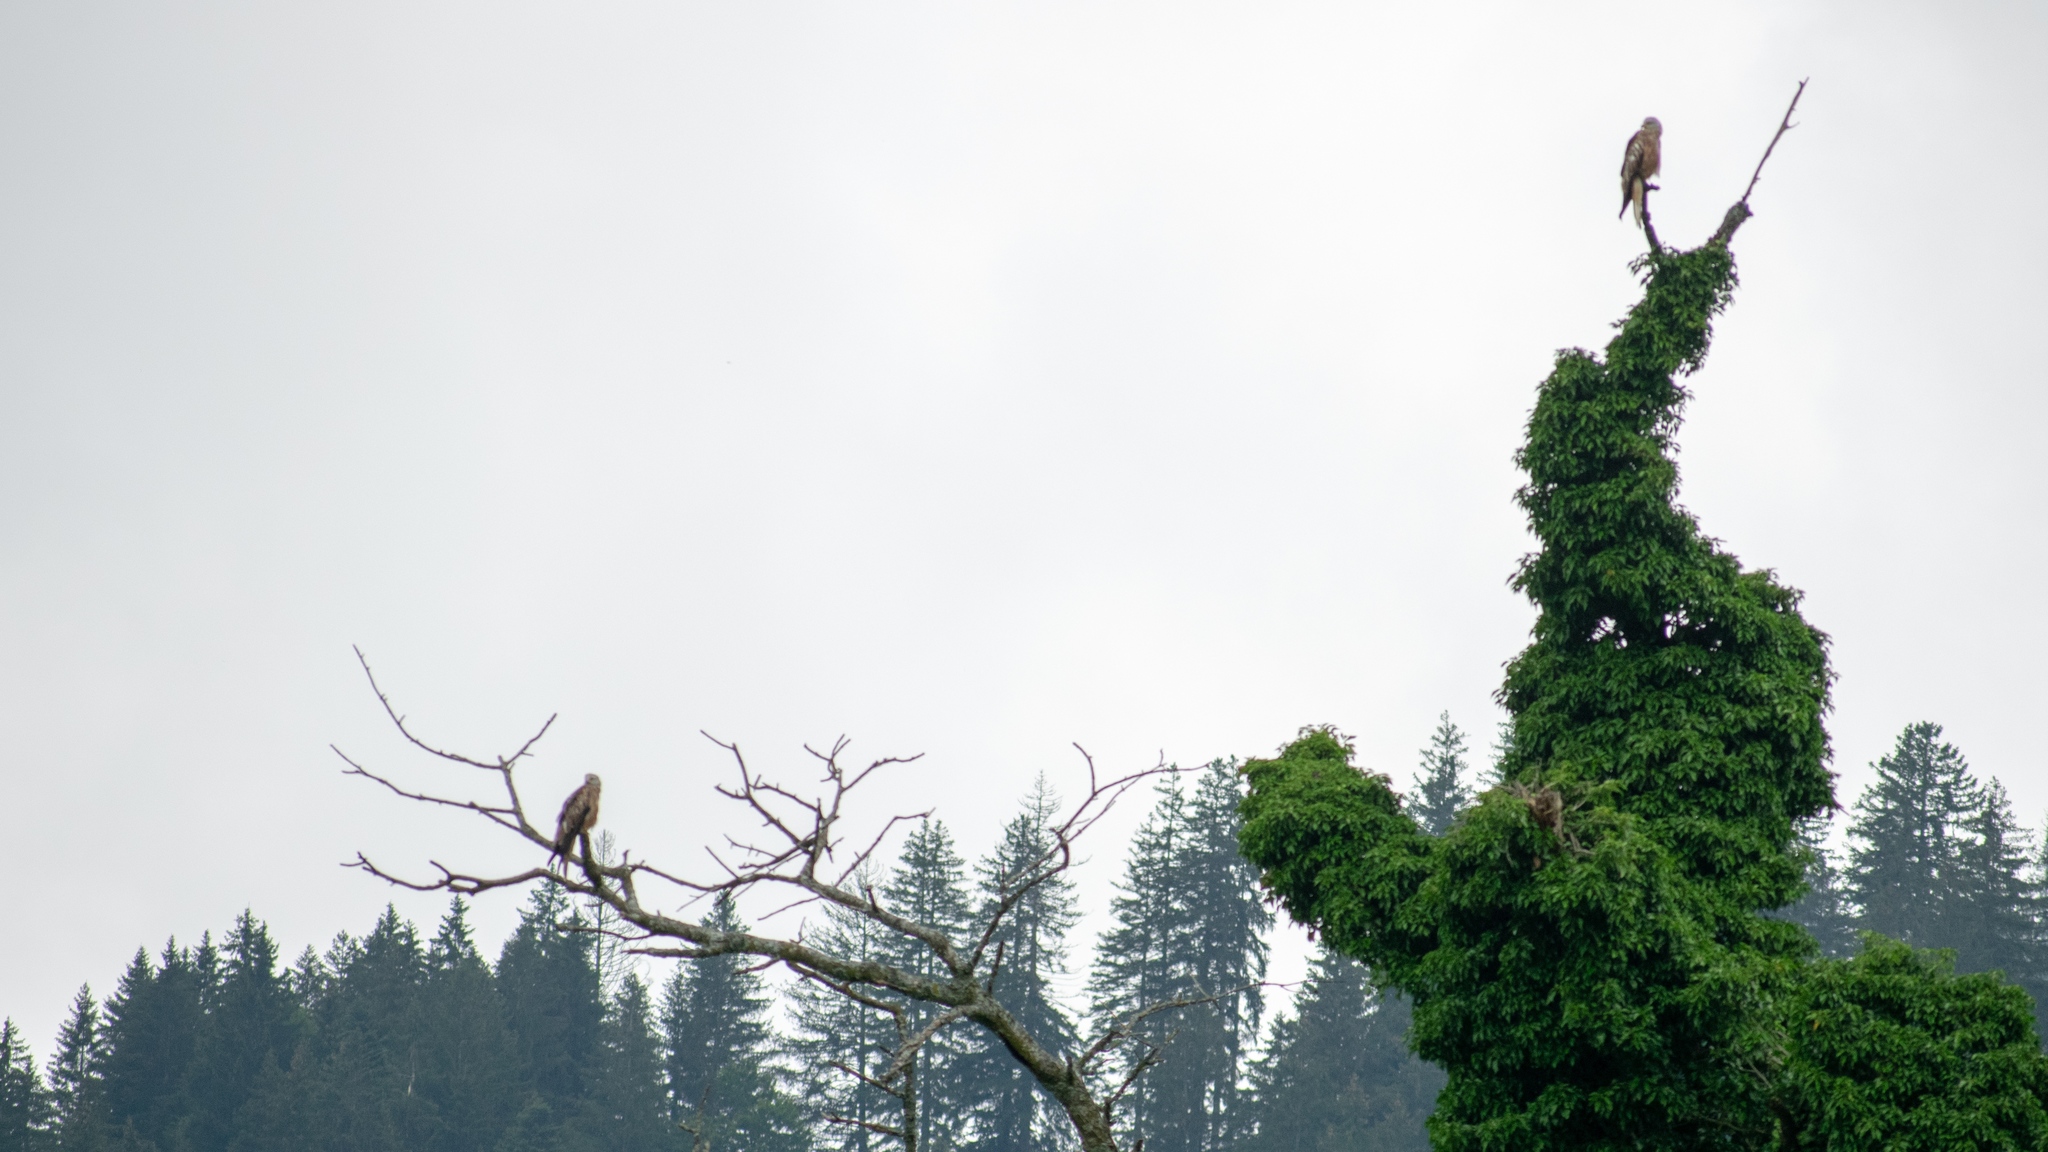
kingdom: Animalia
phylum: Chordata
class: Aves
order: Accipitriformes
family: Accipitridae
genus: Milvus
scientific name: Milvus milvus
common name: Red kite
